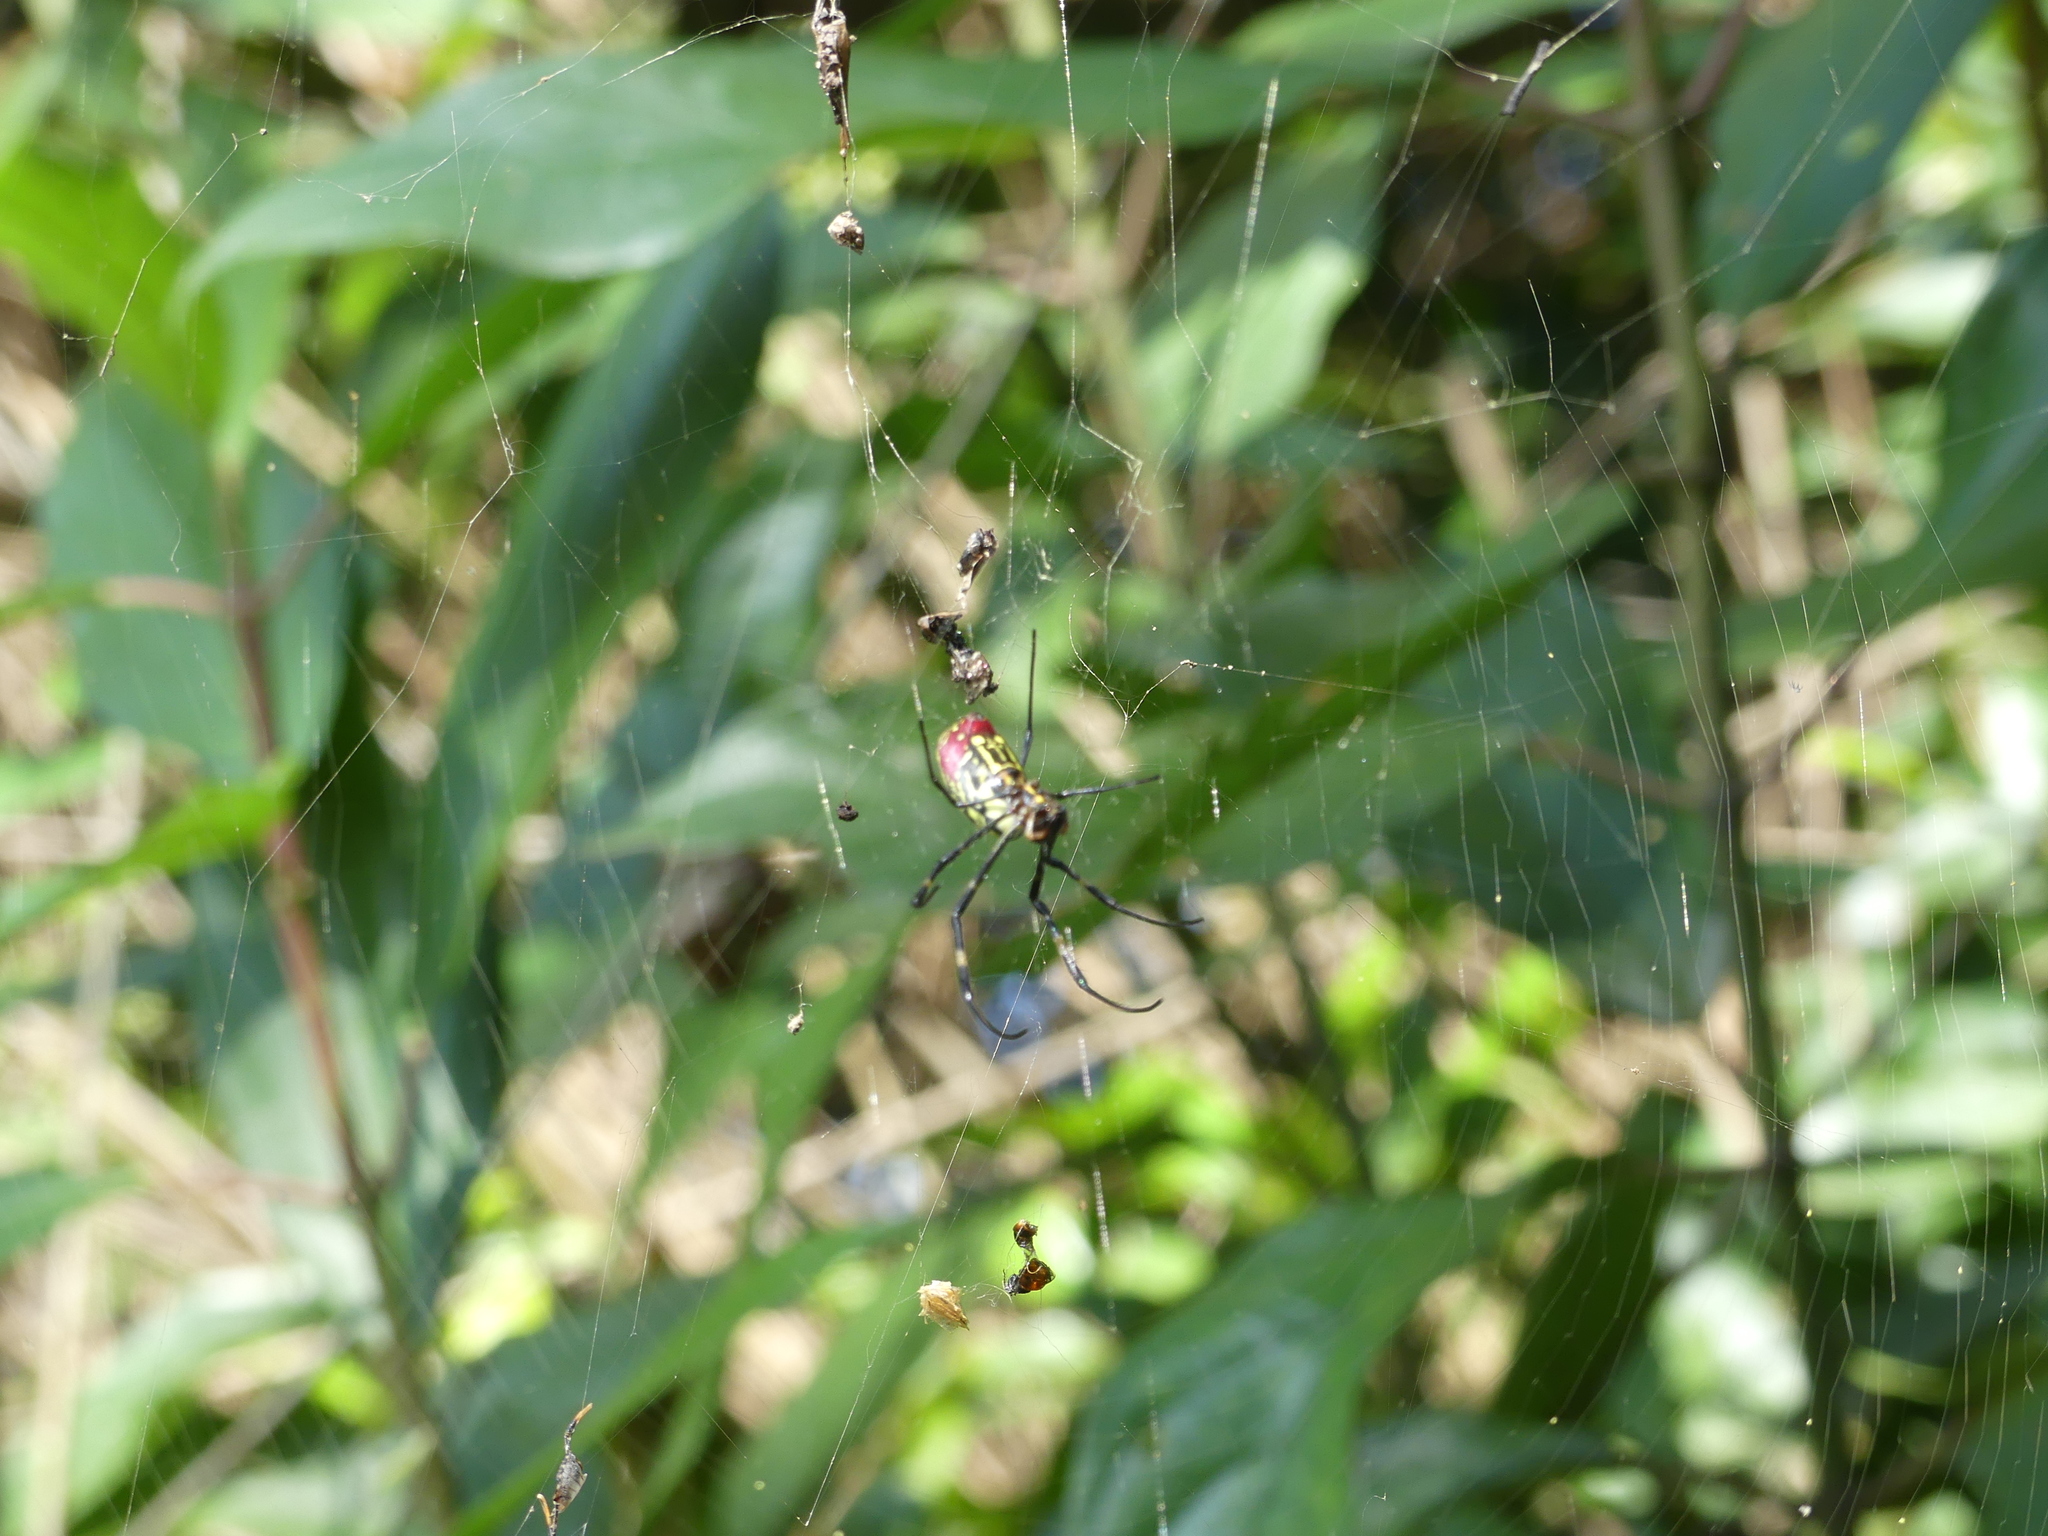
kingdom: Animalia
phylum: Arthropoda
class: Arachnida
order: Araneae
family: Araneidae
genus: Trichonephila
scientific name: Trichonephila clavata
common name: Jorō spider
